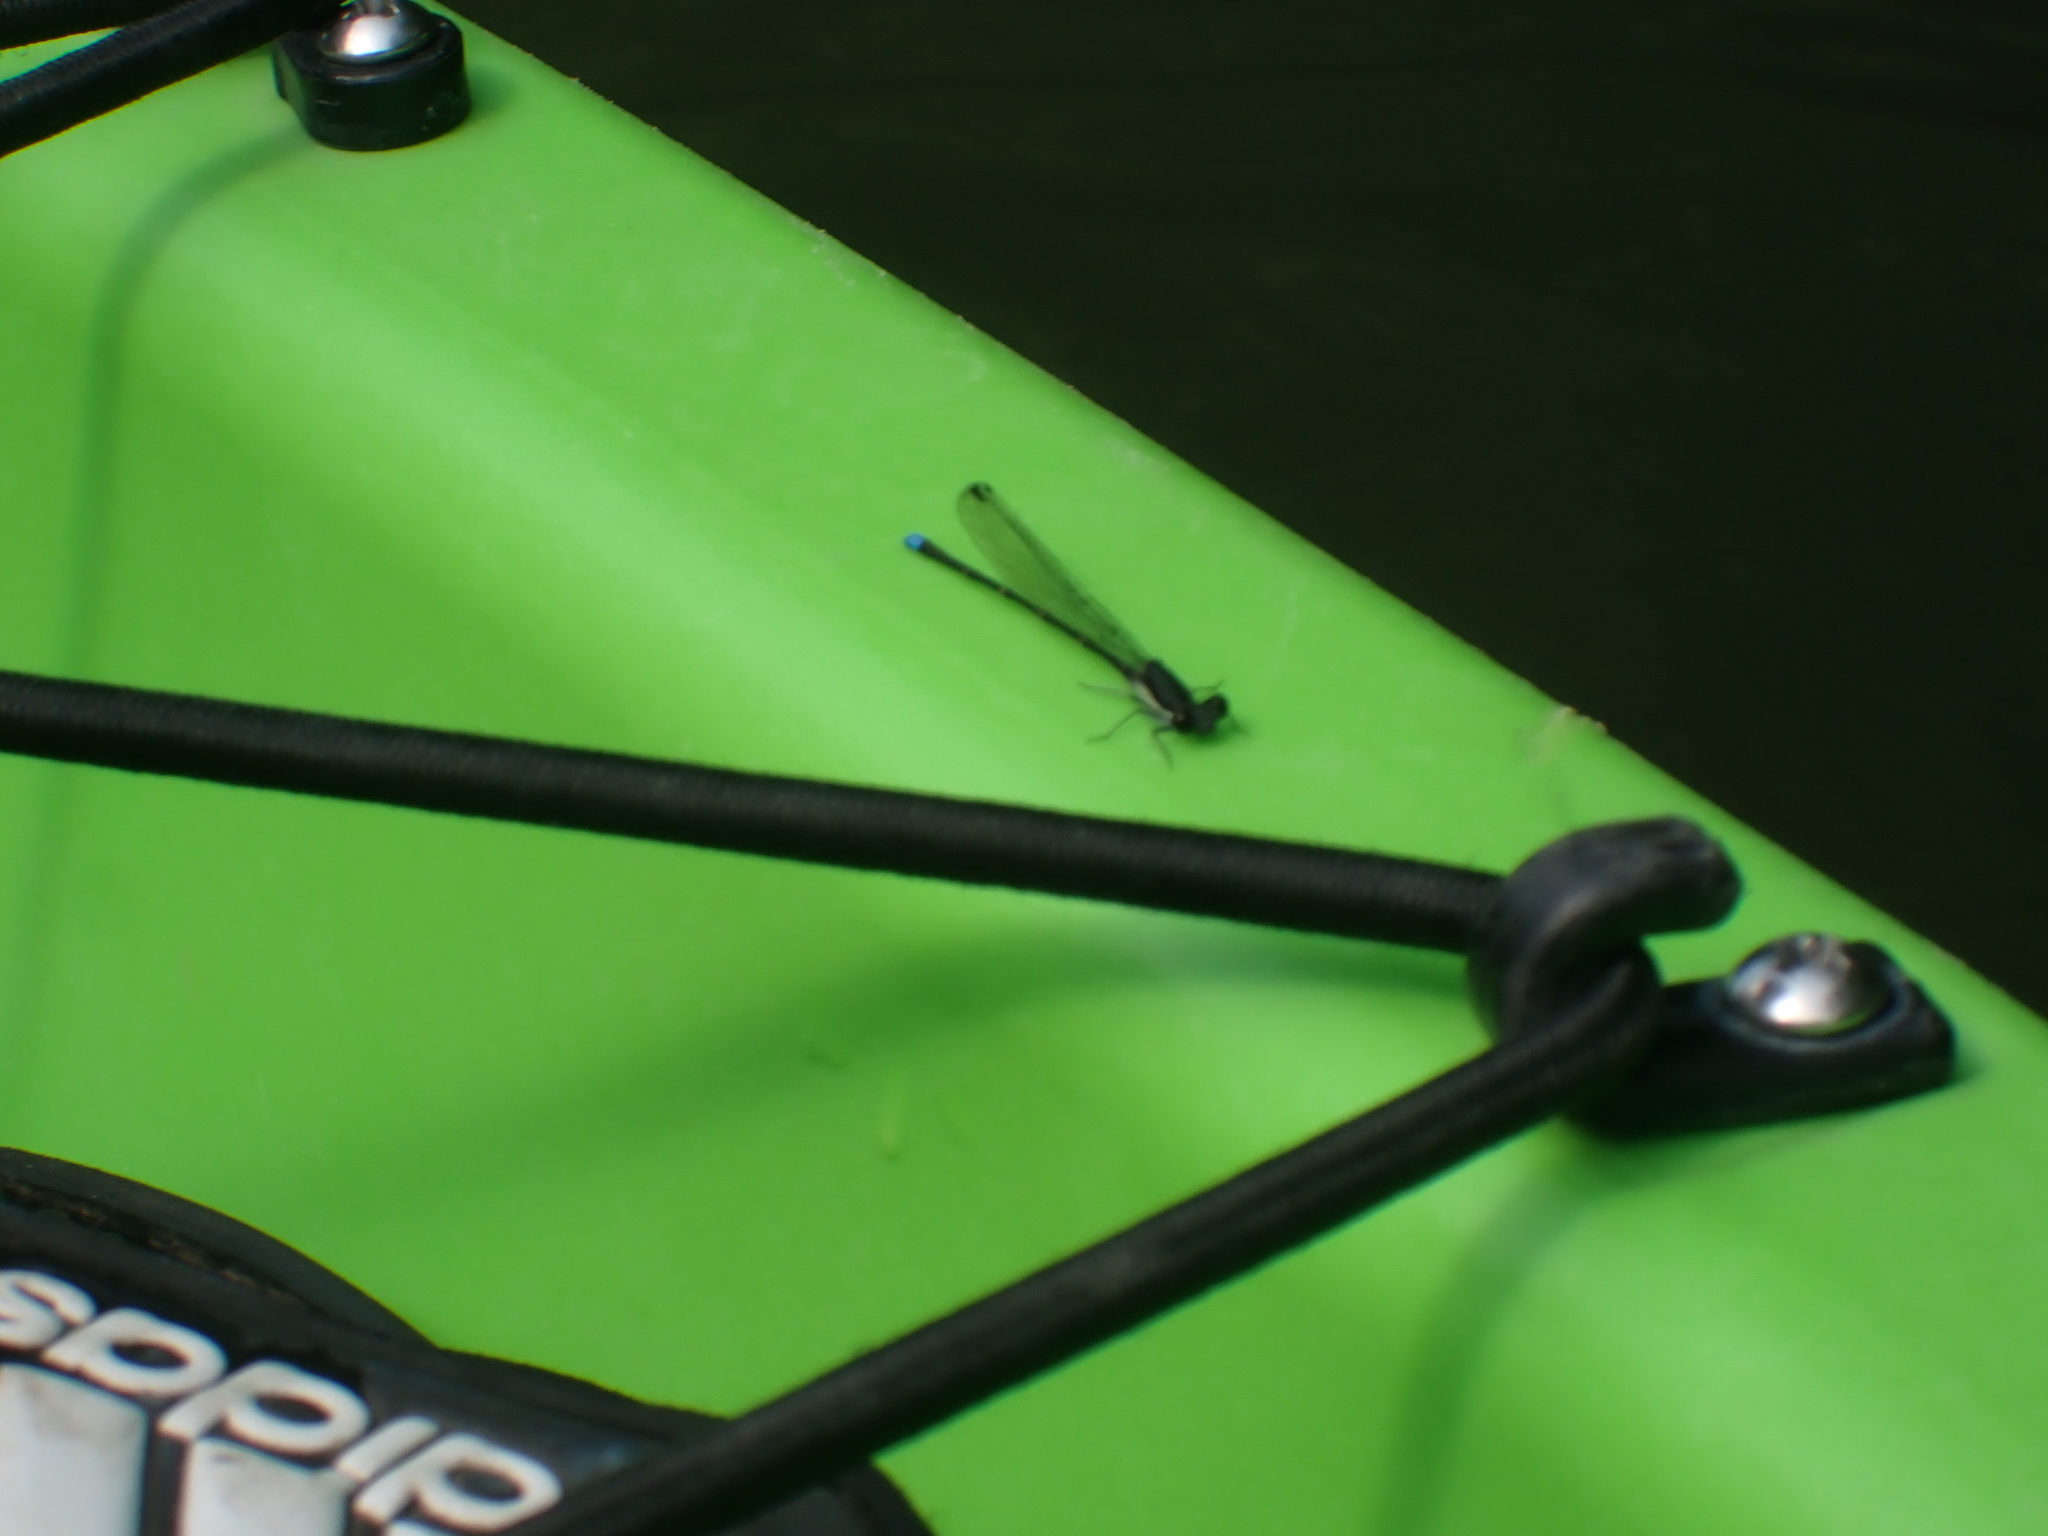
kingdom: Animalia
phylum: Arthropoda
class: Insecta
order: Odonata
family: Coenagrionidae
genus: Argia
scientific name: Argia tibialis
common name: Blue-tipped dancer
